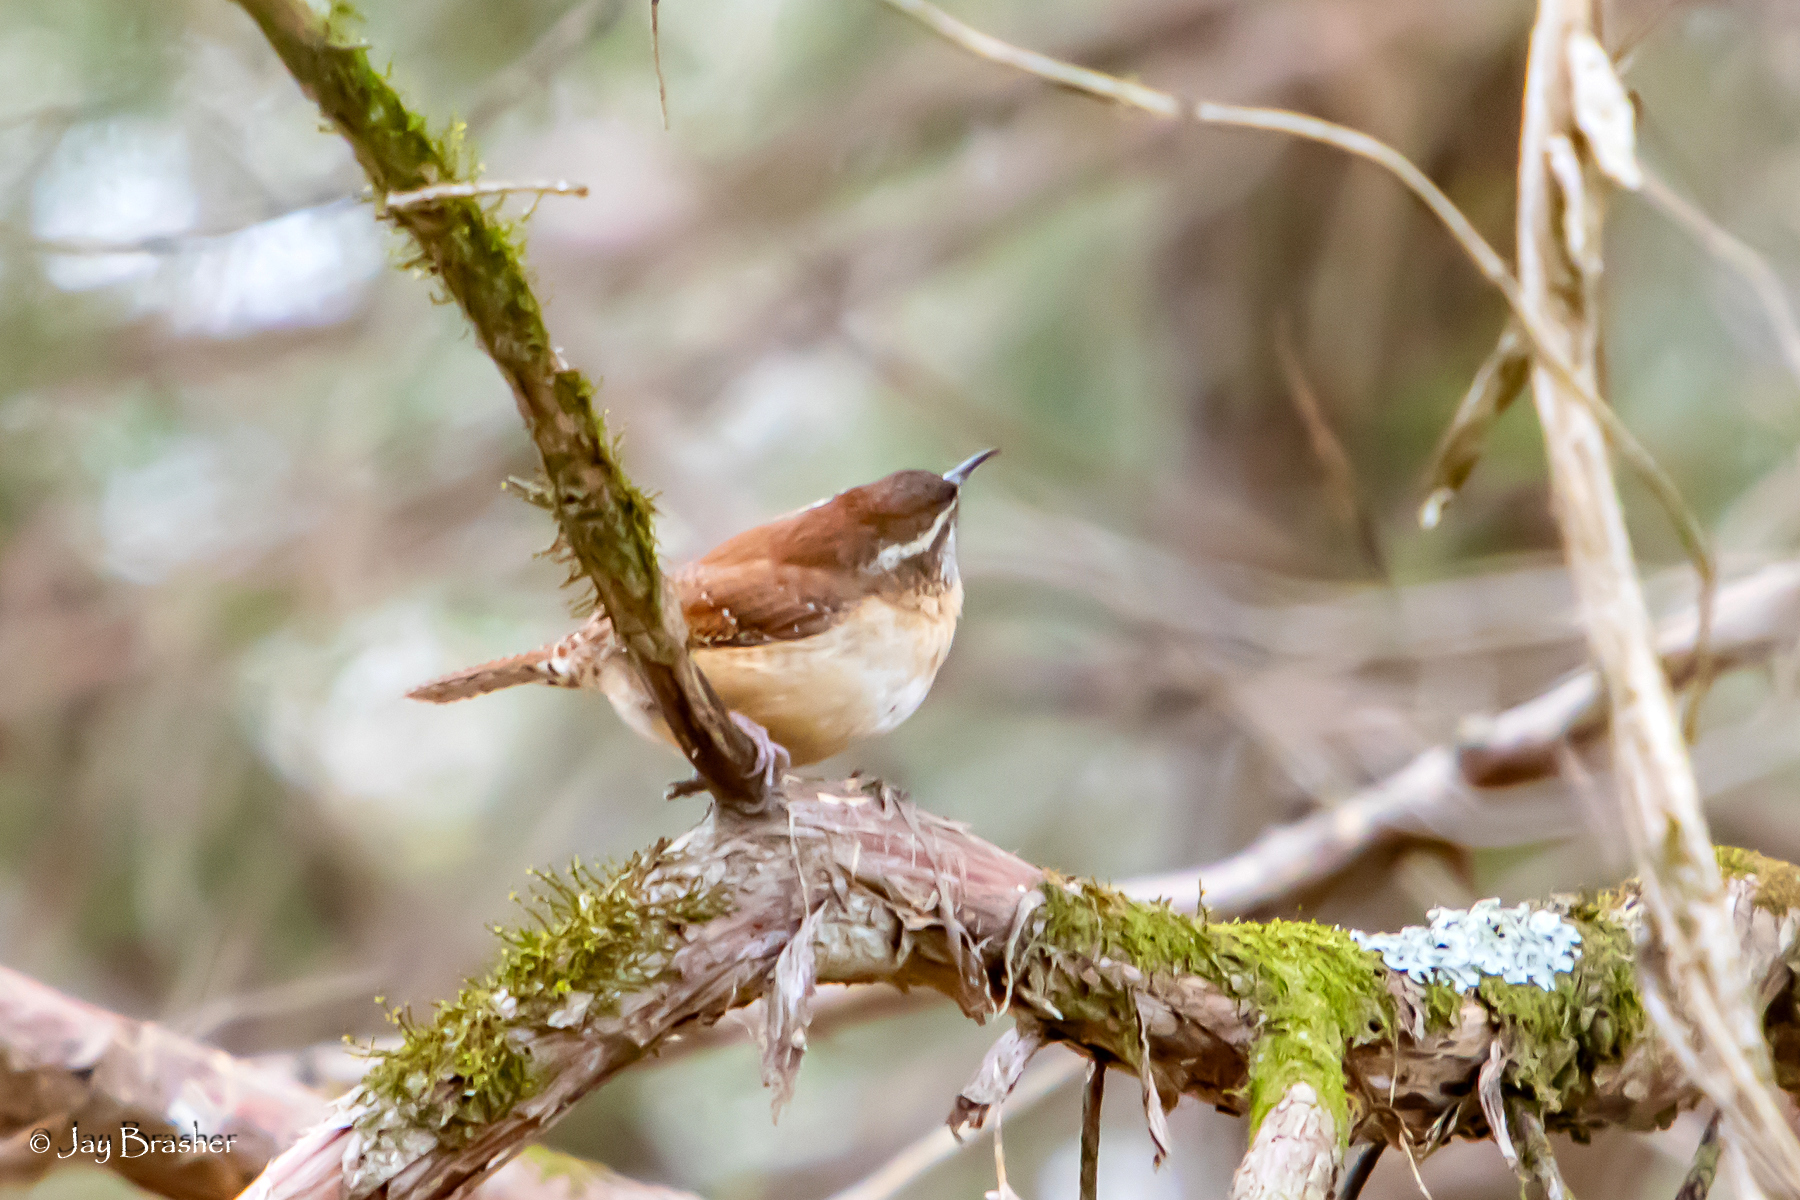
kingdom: Animalia
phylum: Chordata
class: Aves
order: Passeriformes
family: Troglodytidae
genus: Thryothorus
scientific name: Thryothorus ludovicianus
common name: Carolina wren
